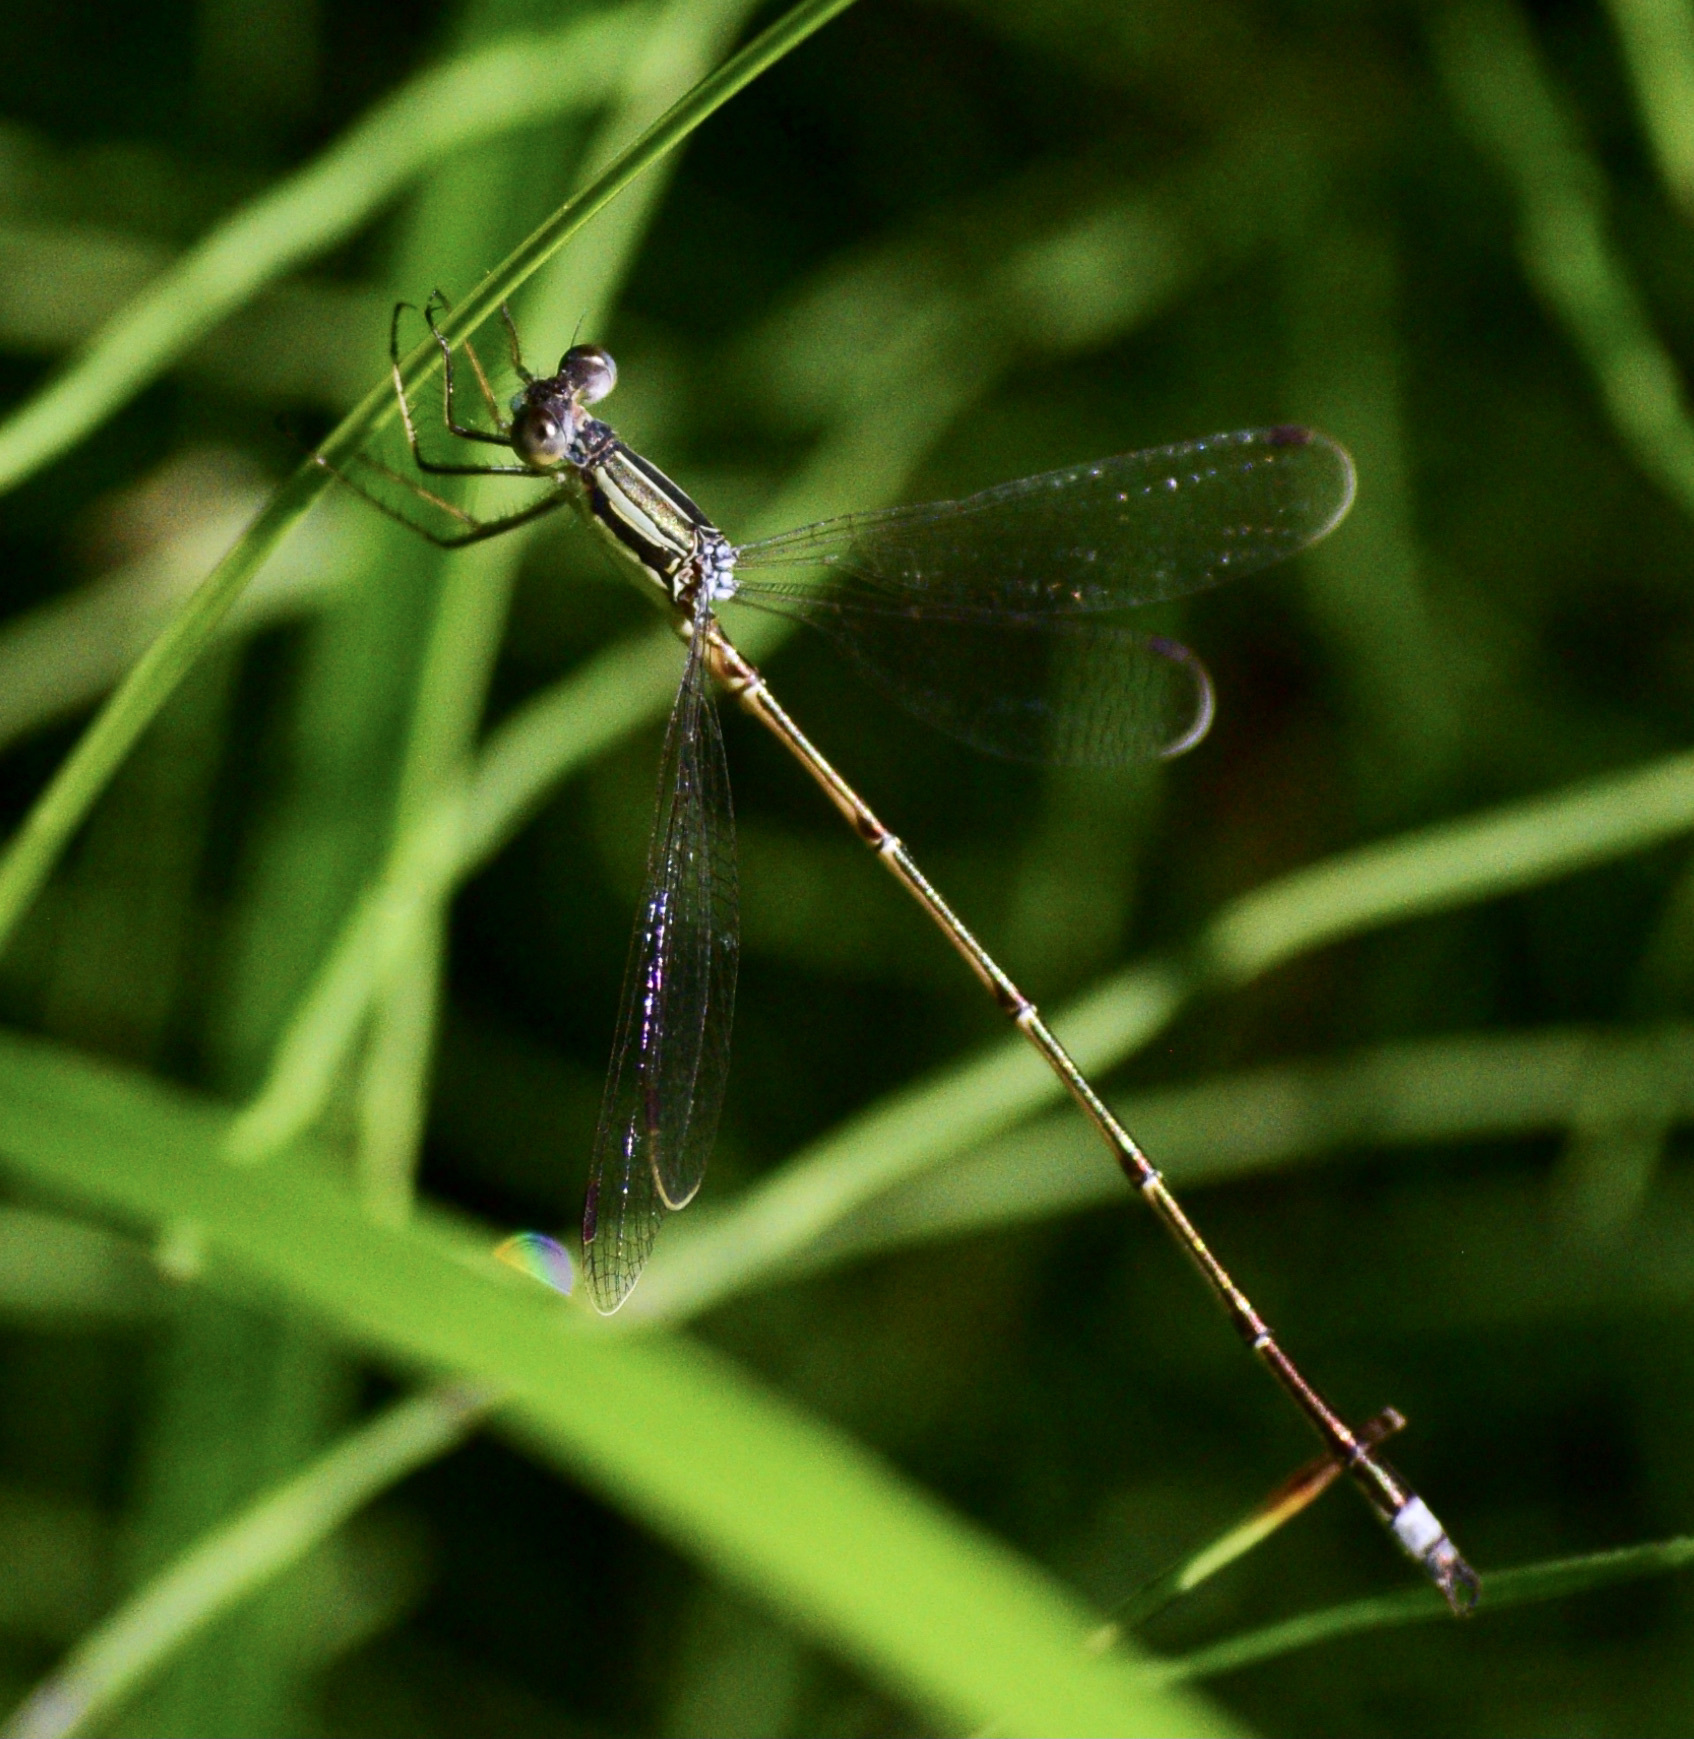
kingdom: Animalia
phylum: Arthropoda
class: Insecta
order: Odonata
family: Lestidae
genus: Lestes
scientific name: Lestes rectangularis
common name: Slender spreadwing
